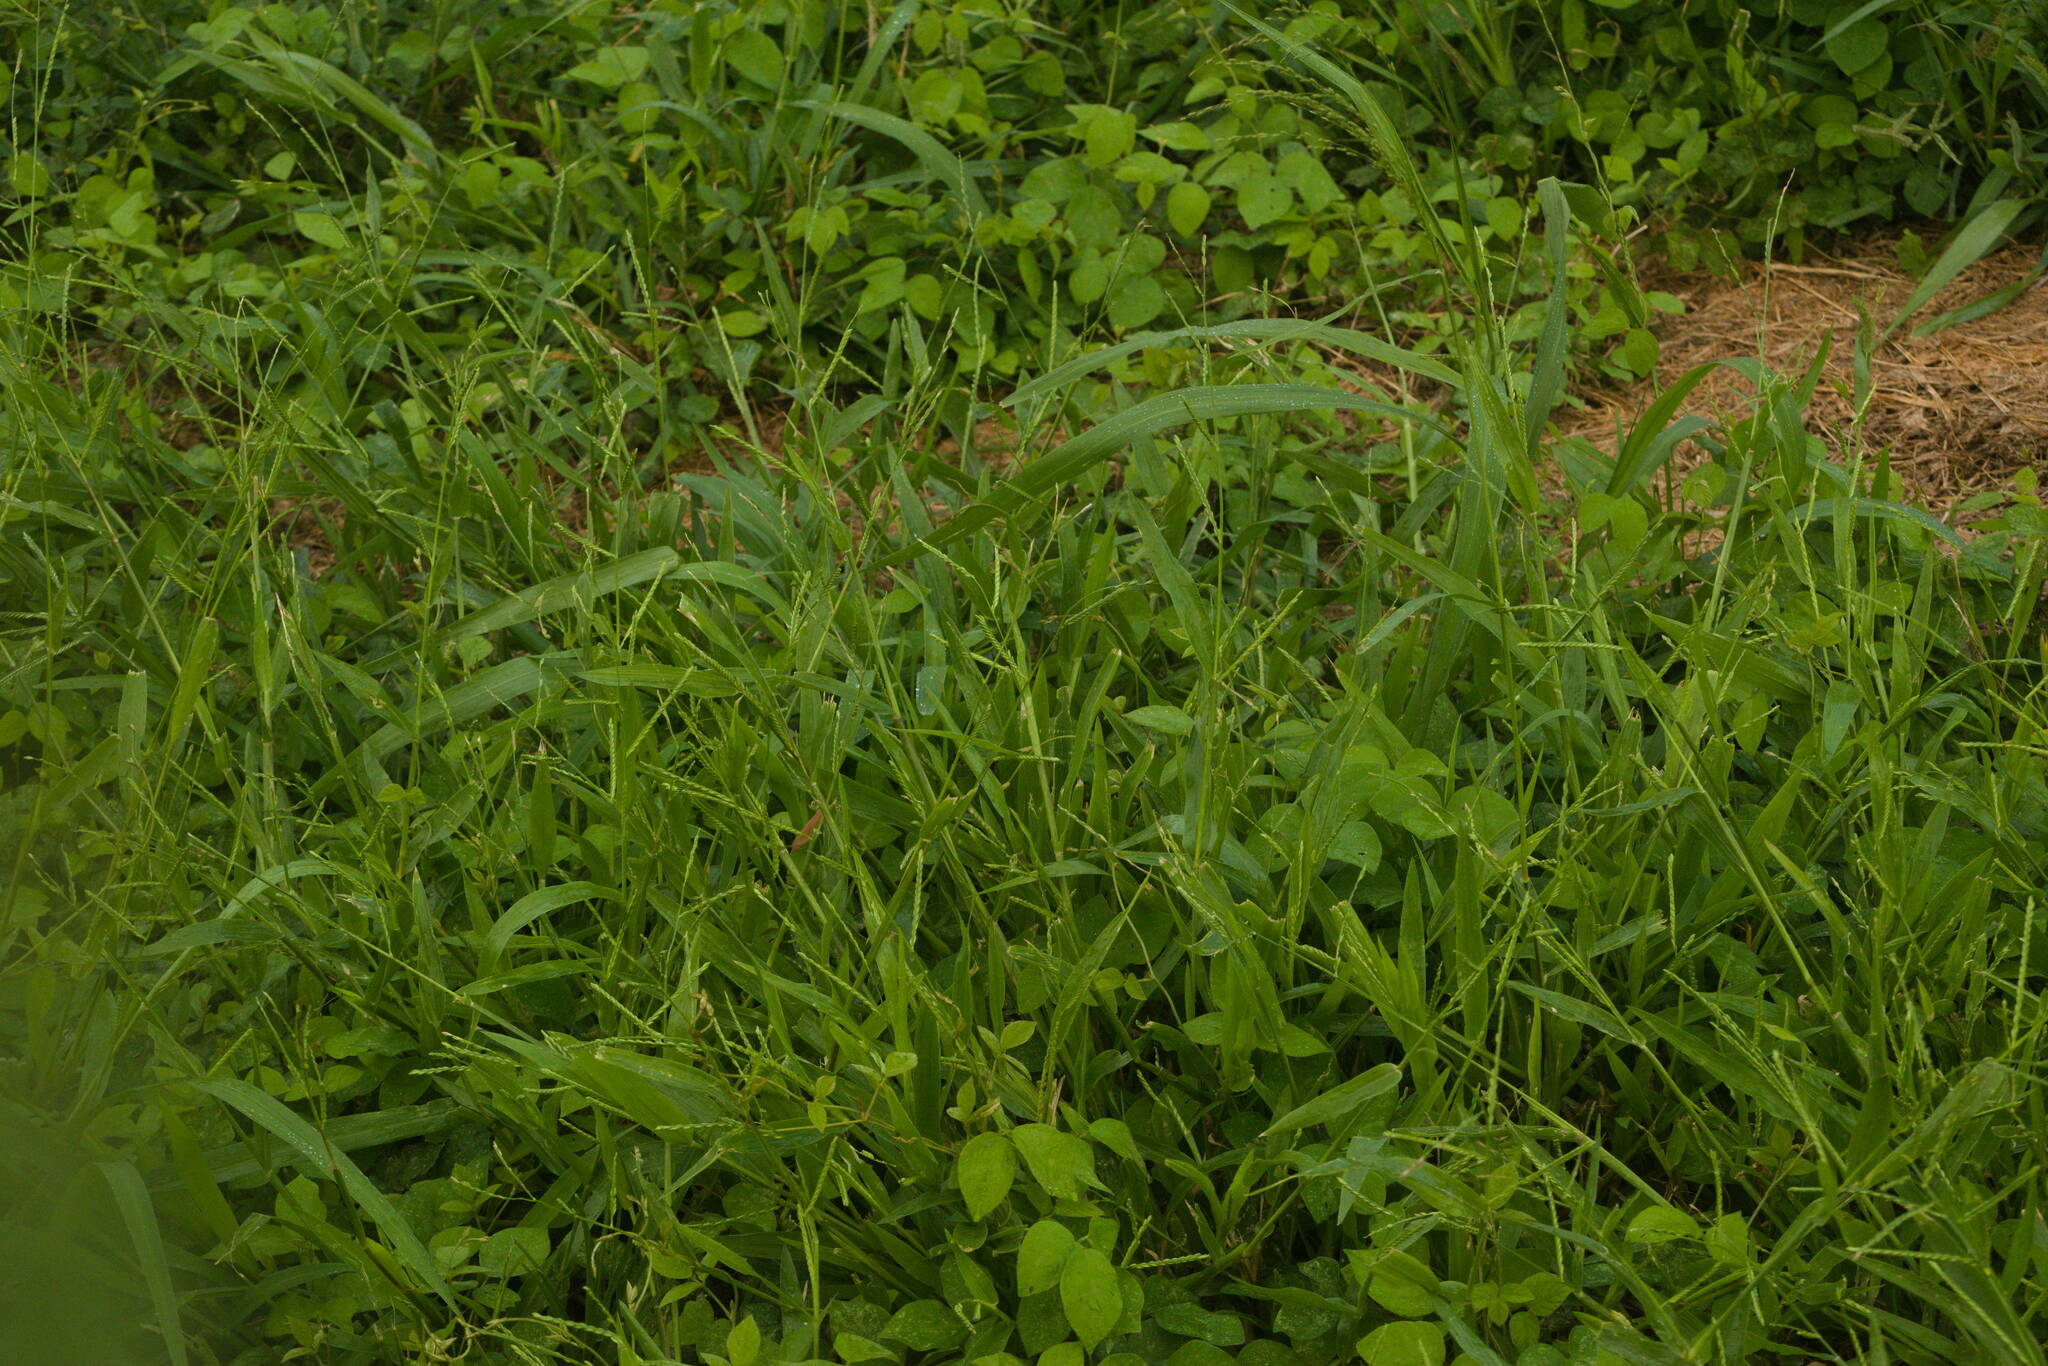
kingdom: Plantae
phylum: Tracheophyta
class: Liliopsida
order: Poales
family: Poaceae
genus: Urochloa
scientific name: Urochloa plantaginea
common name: Plantain signalgrass
